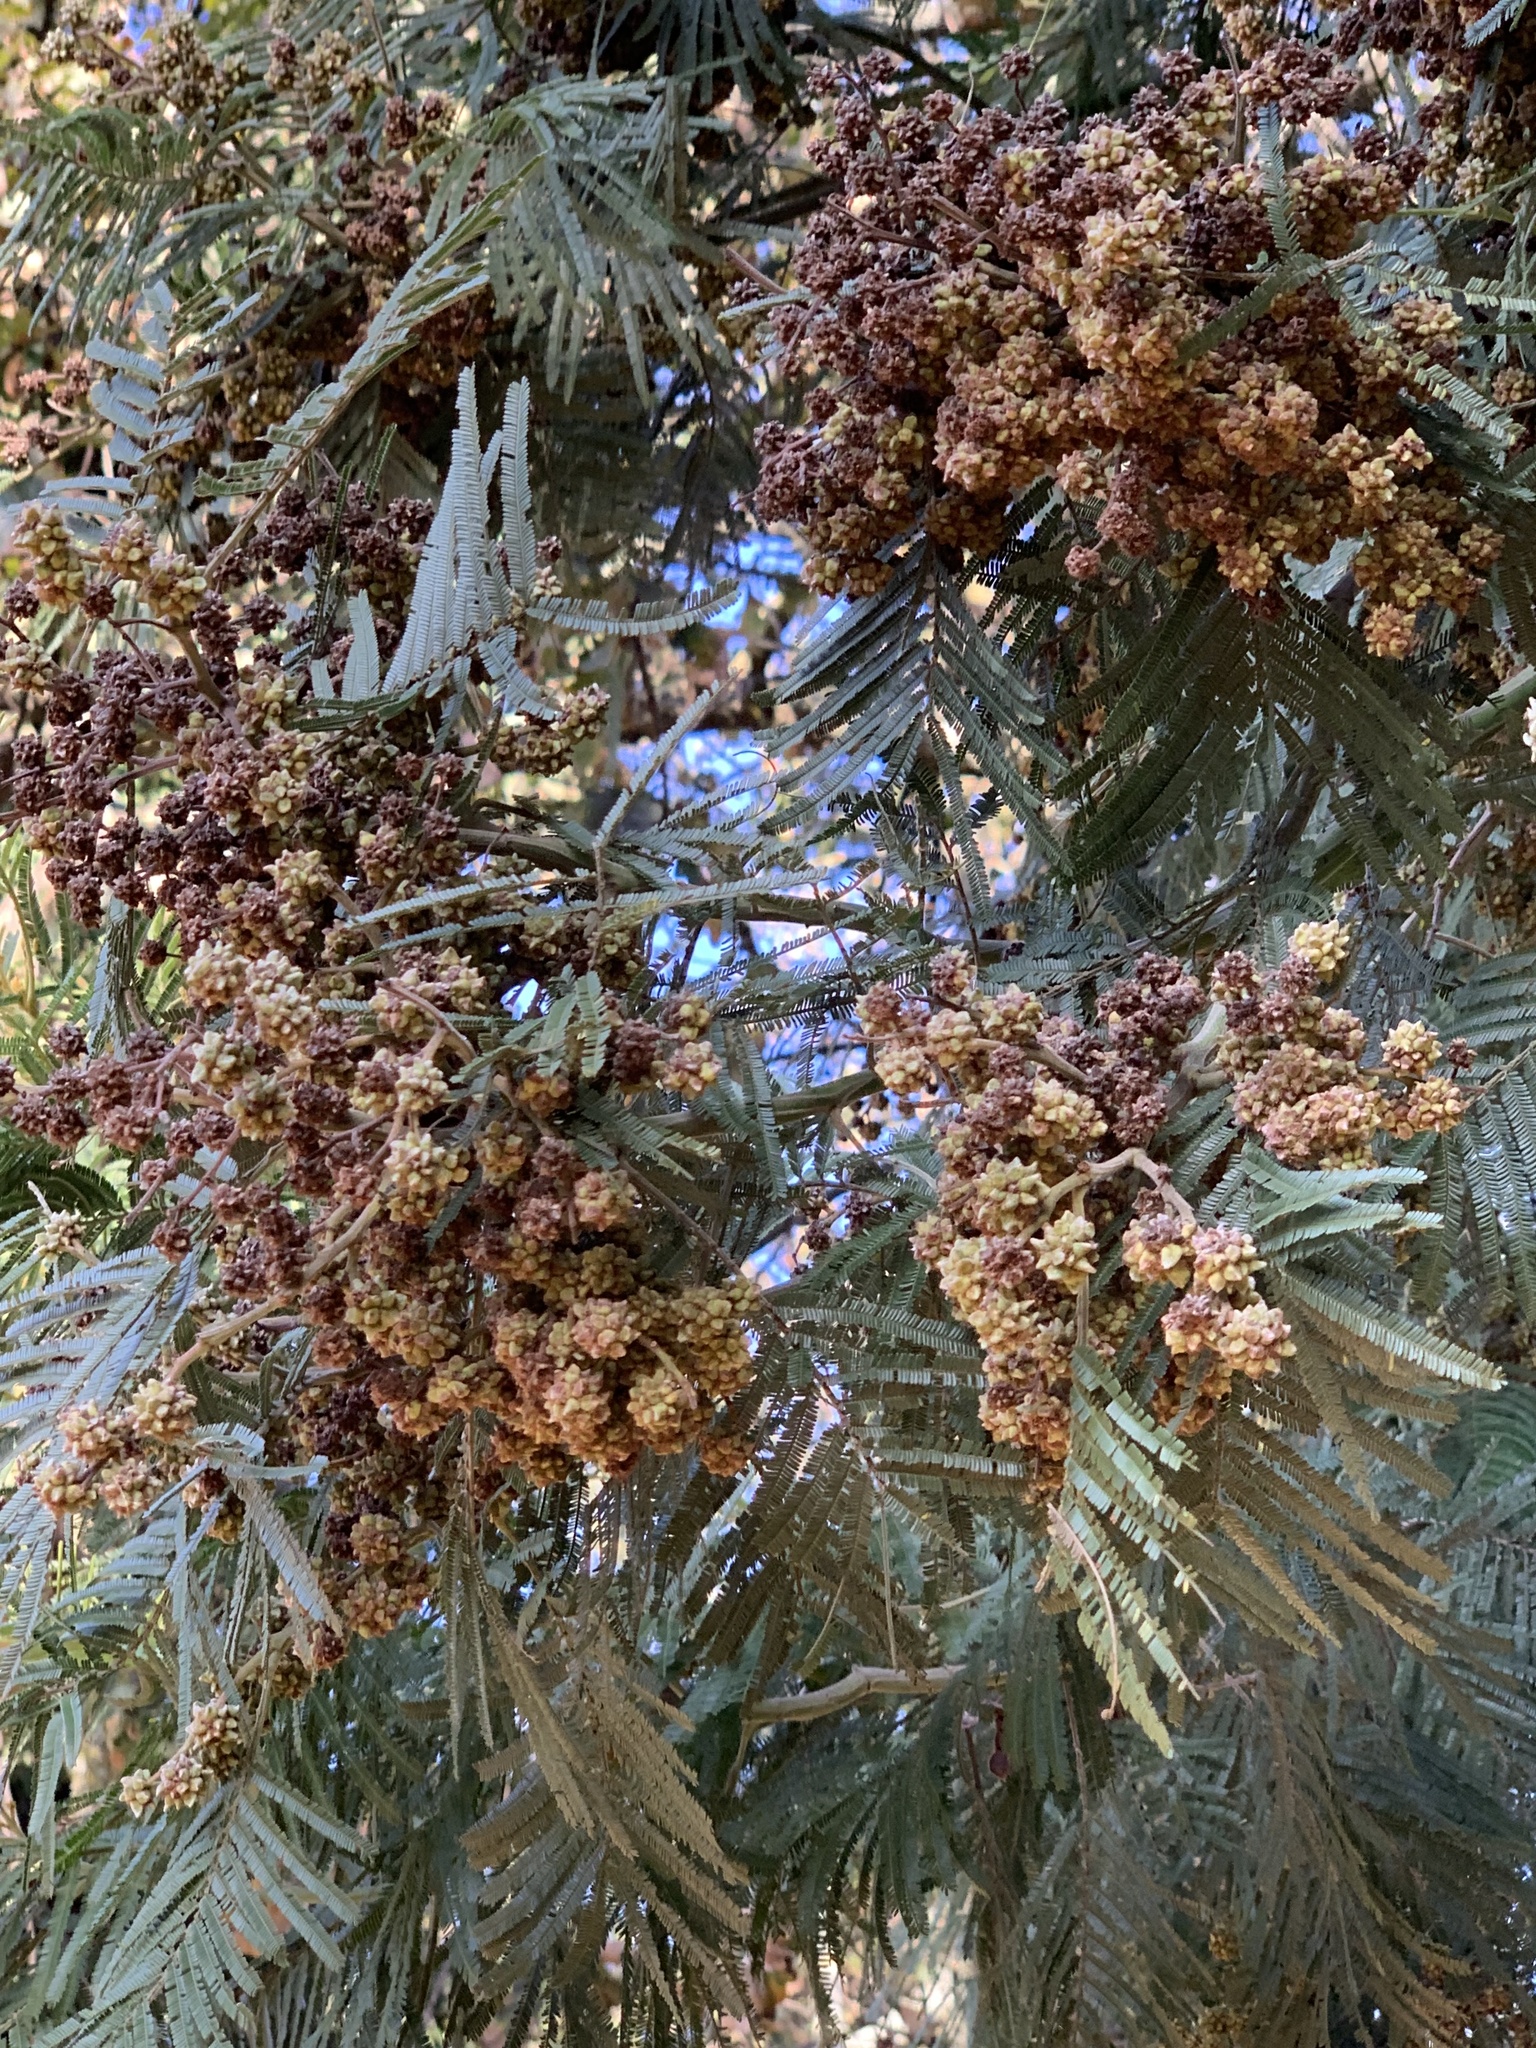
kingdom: Plantae
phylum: Tracheophyta
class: Magnoliopsida
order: Fabales
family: Fabaceae
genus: Acacia
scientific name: Acacia mearnsii
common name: Black wattle
